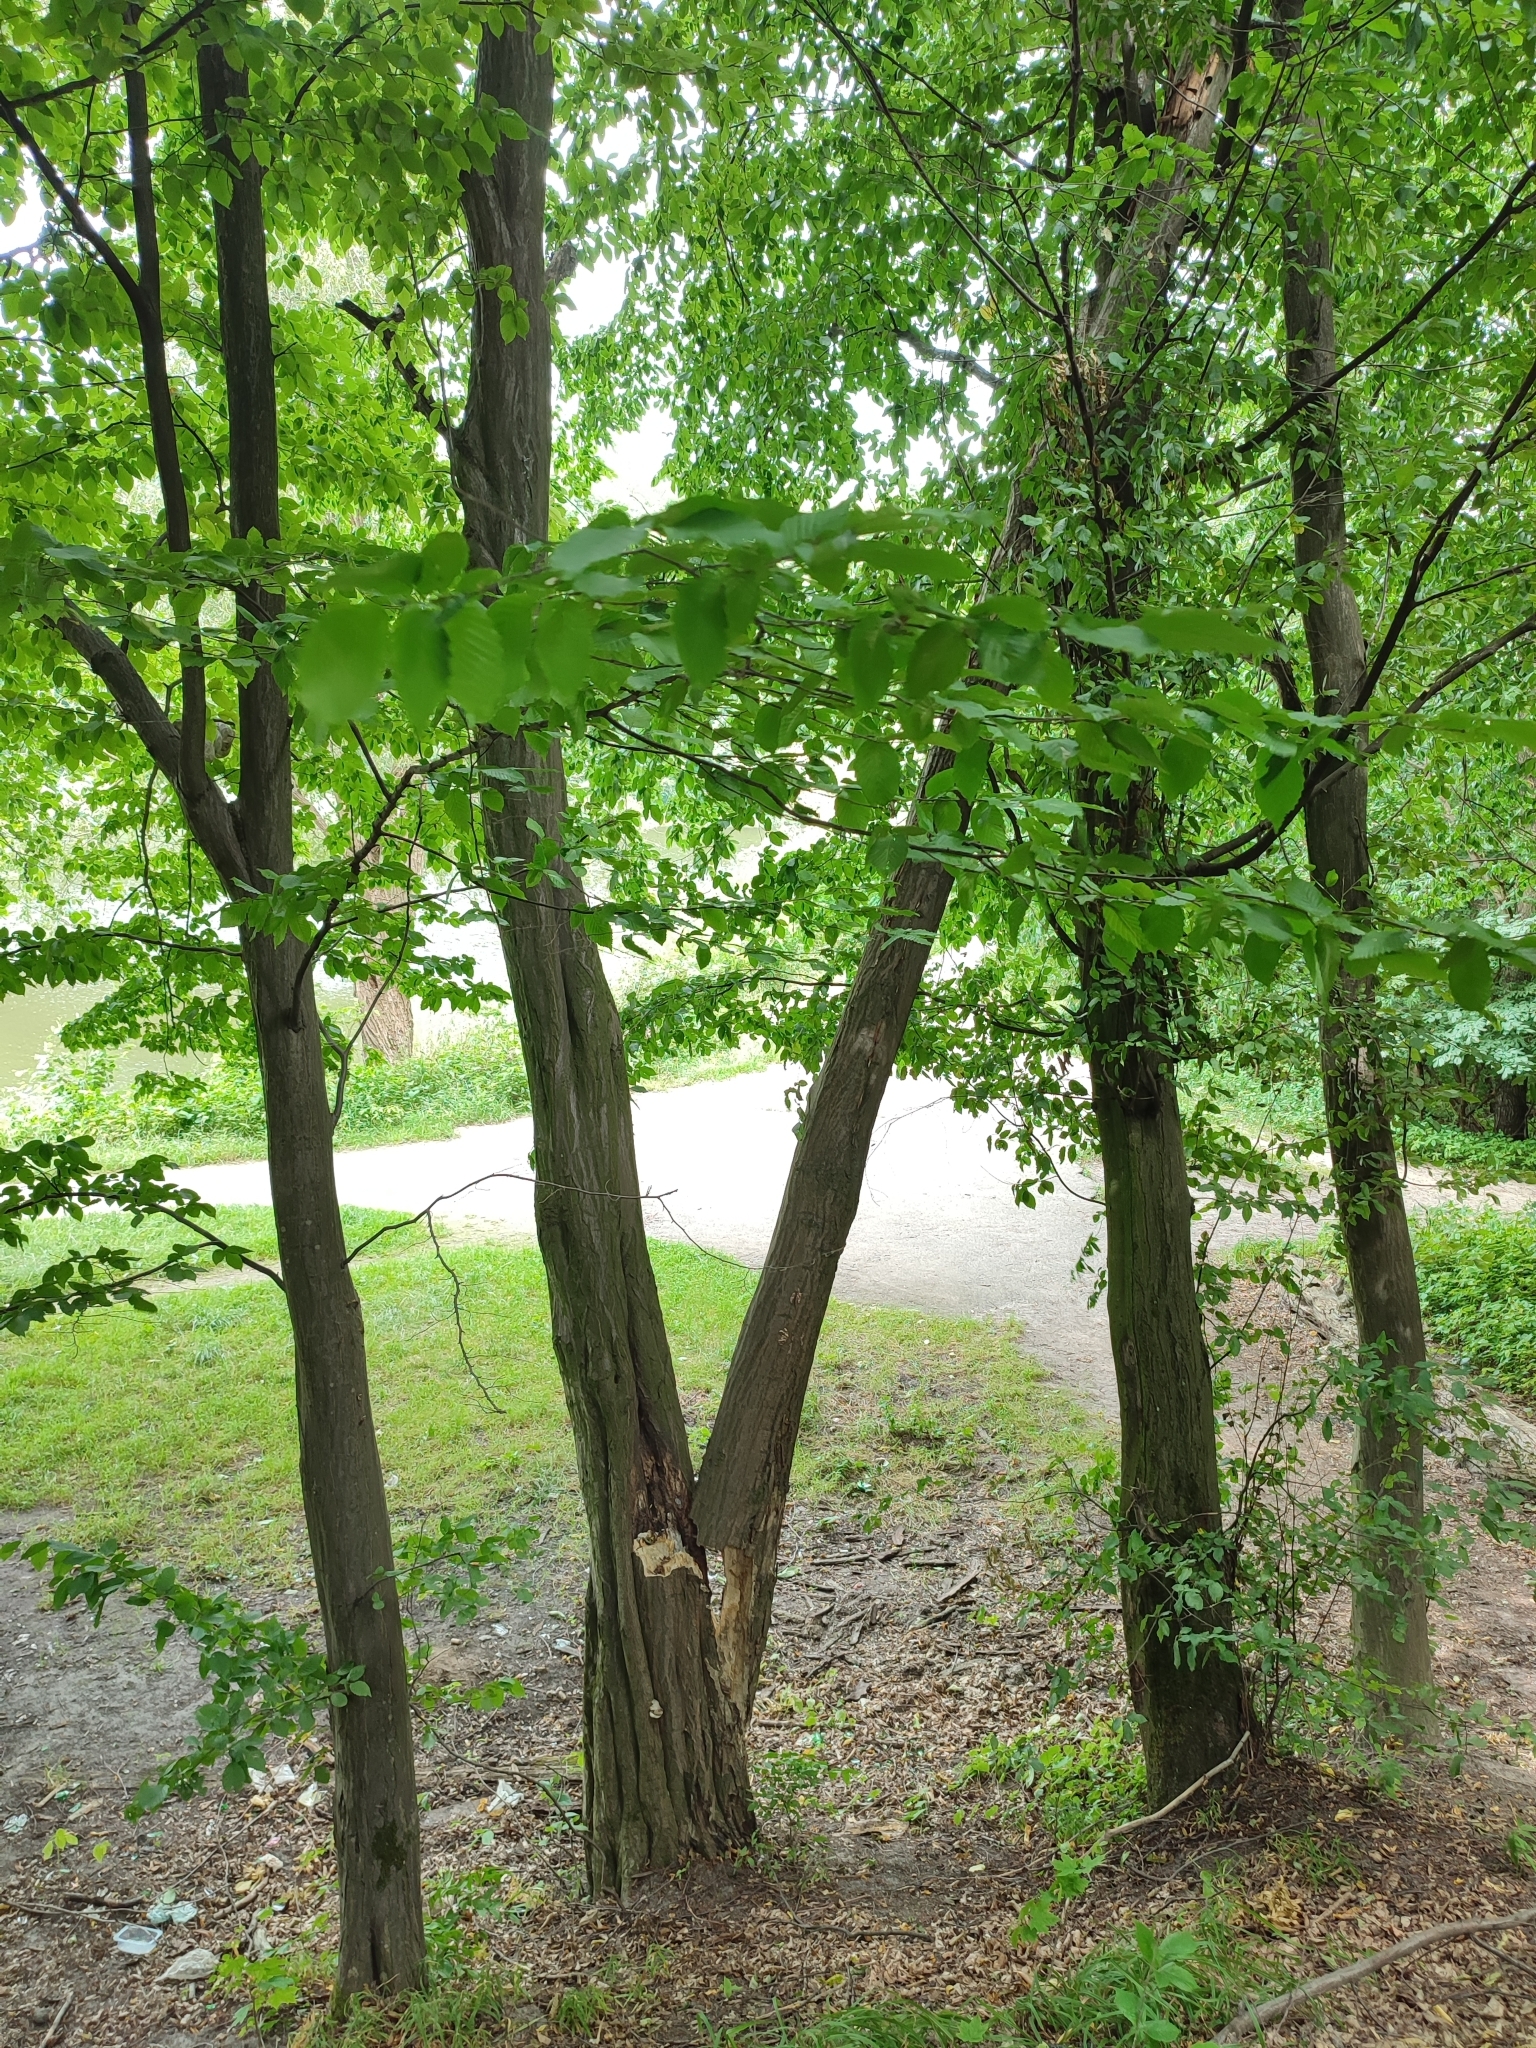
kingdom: Plantae
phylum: Tracheophyta
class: Magnoliopsida
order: Fagales
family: Betulaceae
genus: Carpinus
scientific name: Carpinus betulus
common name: Hornbeam
